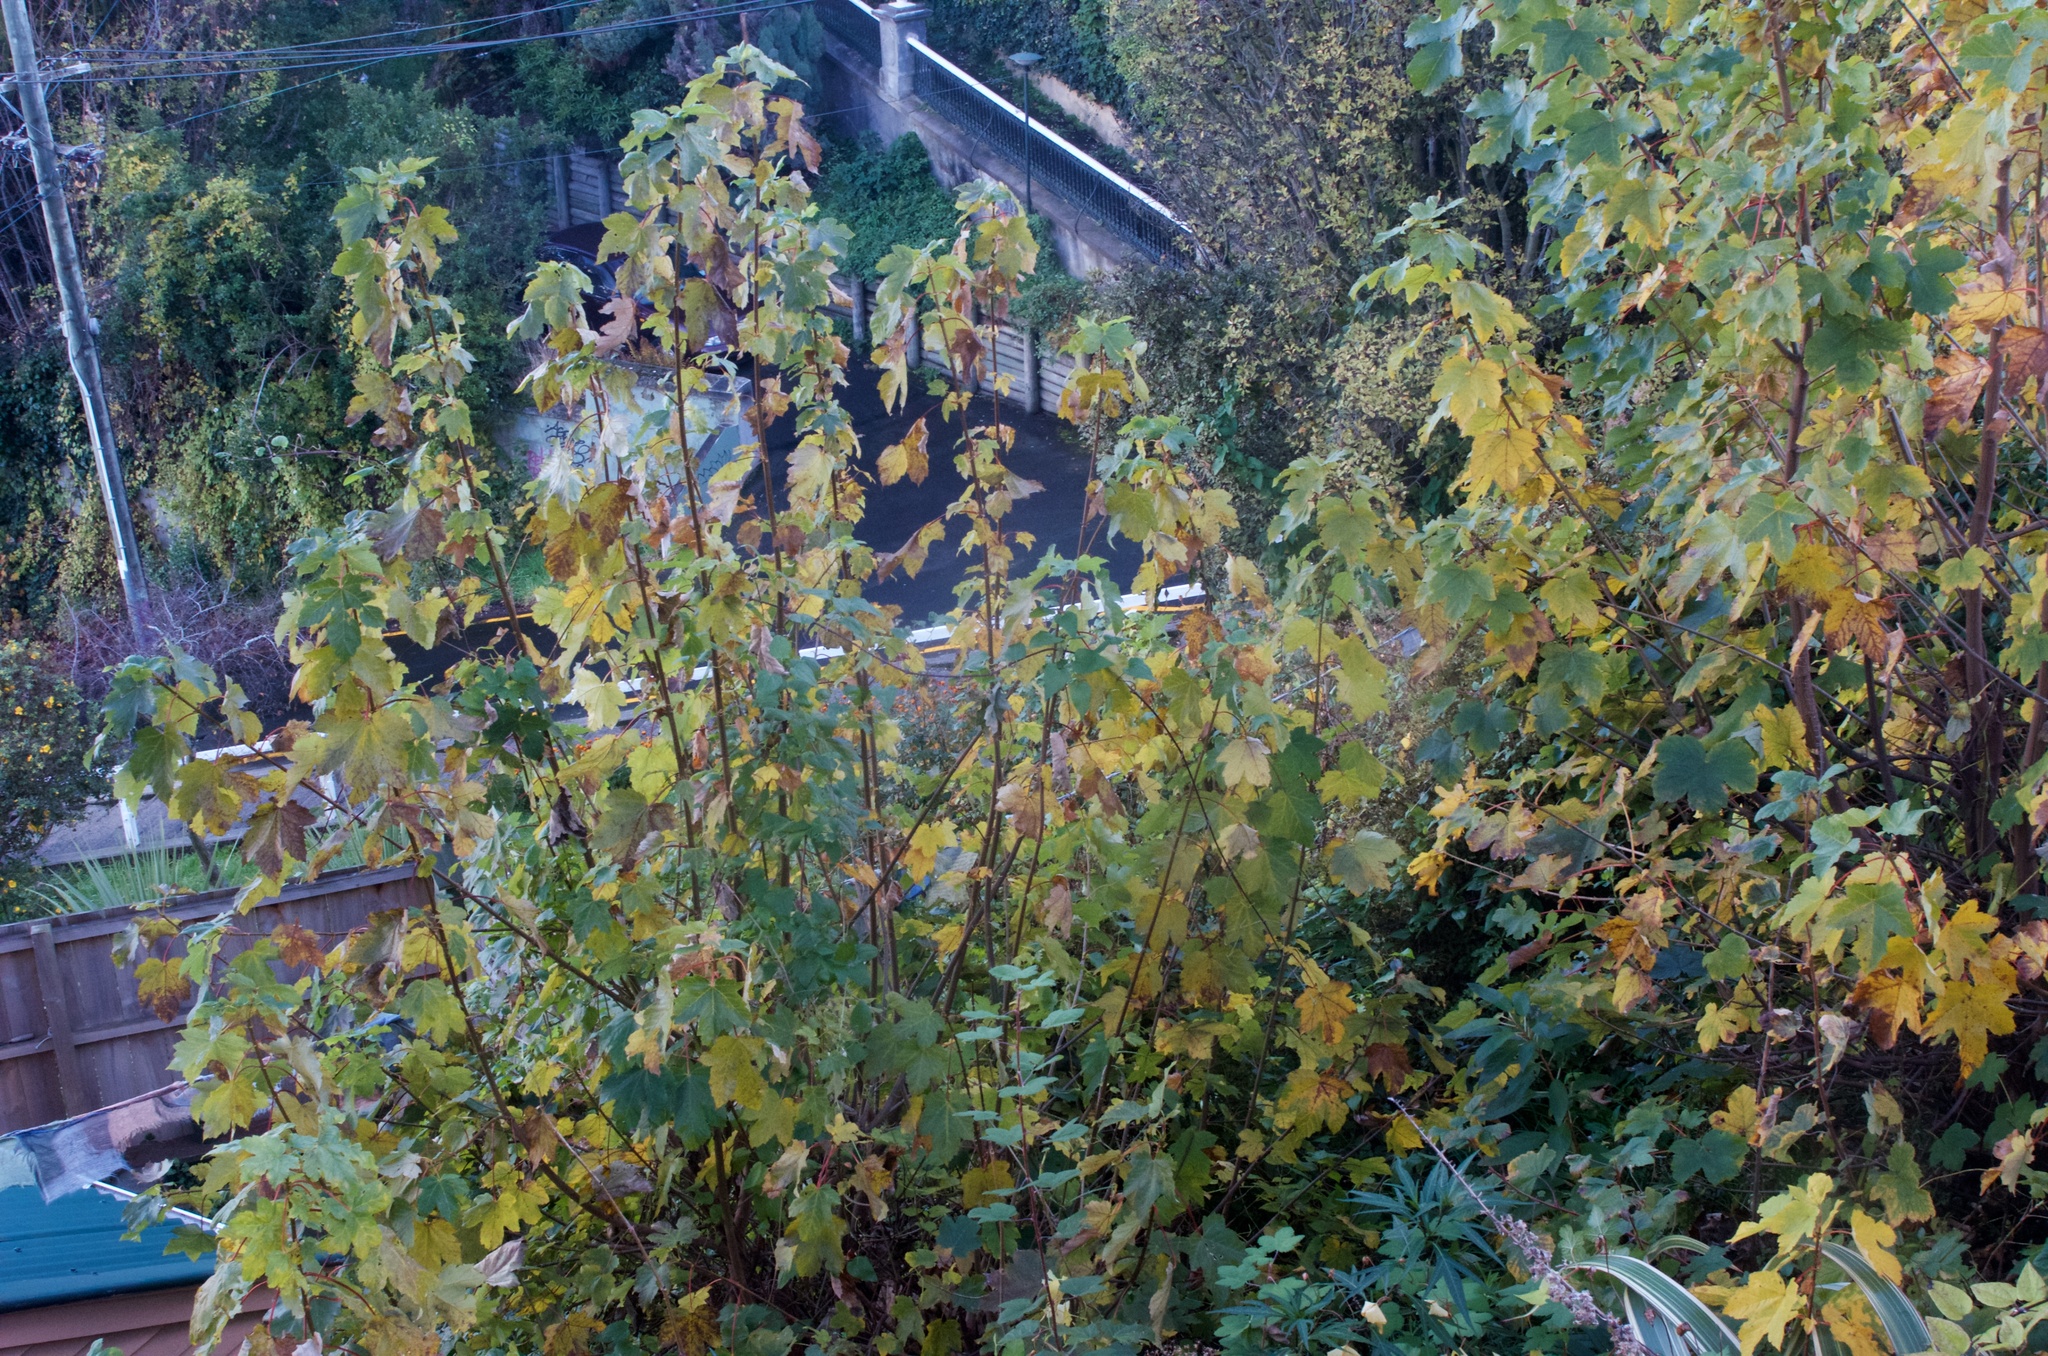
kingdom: Plantae
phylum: Tracheophyta
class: Magnoliopsida
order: Sapindales
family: Sapindaceae
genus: Acer
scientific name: Acer pseudoplatanus
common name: Sycamore
